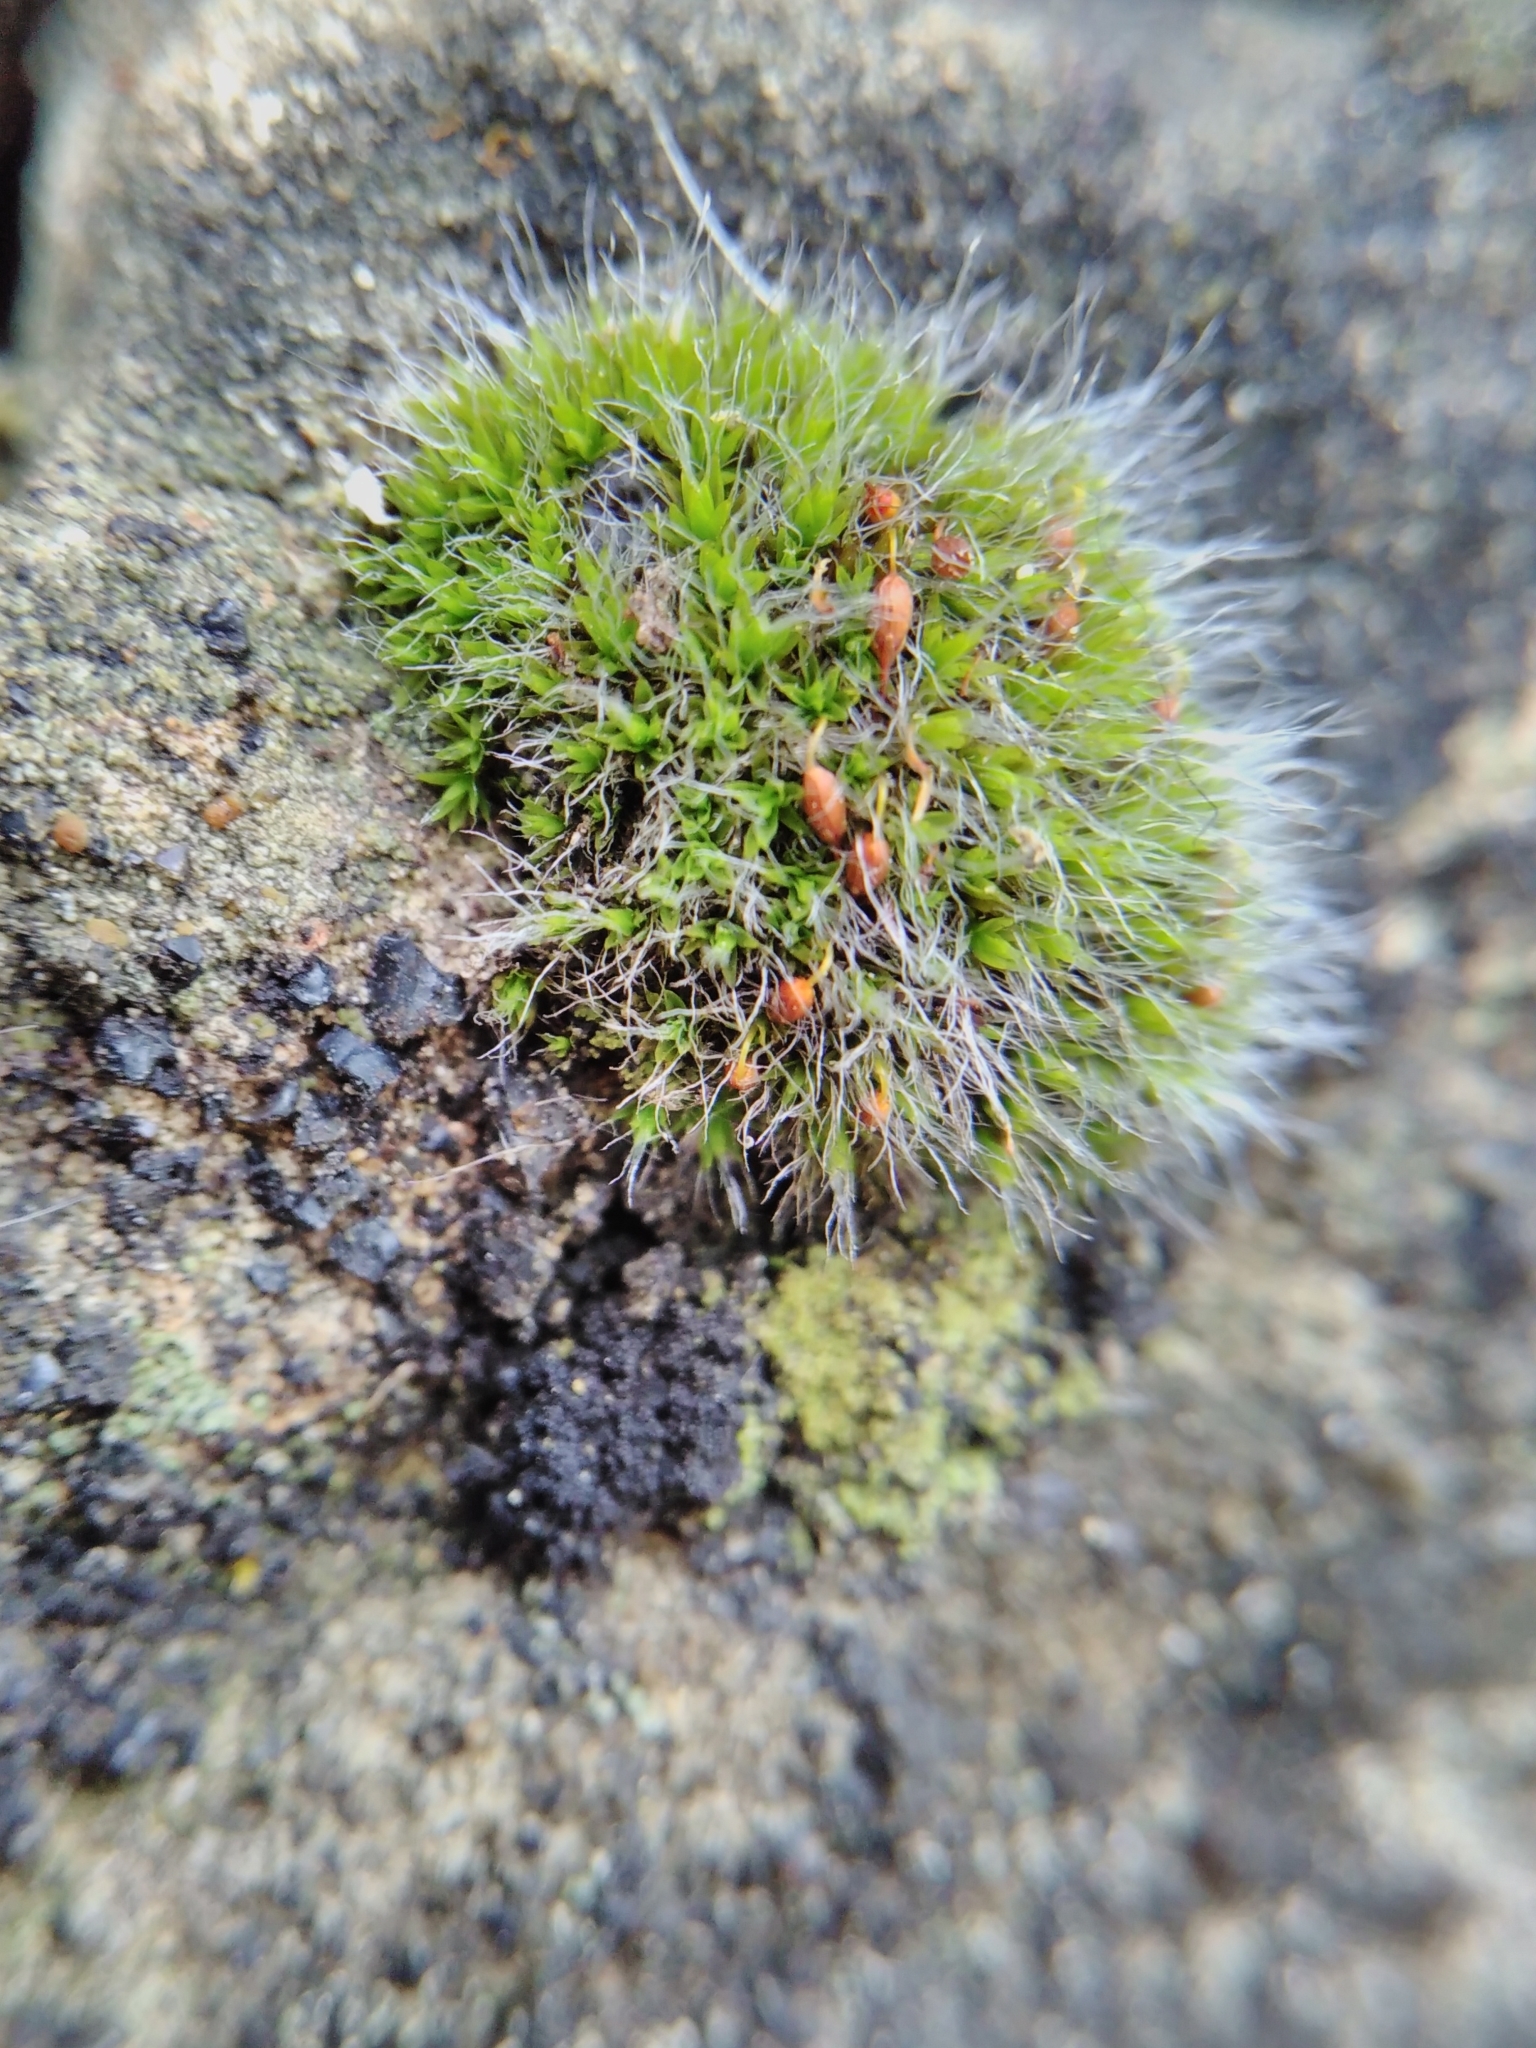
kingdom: Plantae
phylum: Bryophyta
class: Bryopsida
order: Grimmiales
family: Grimmiaceae
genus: Grimmia
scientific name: Grimmia pulvinata
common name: Grey-cushioned grimmia
